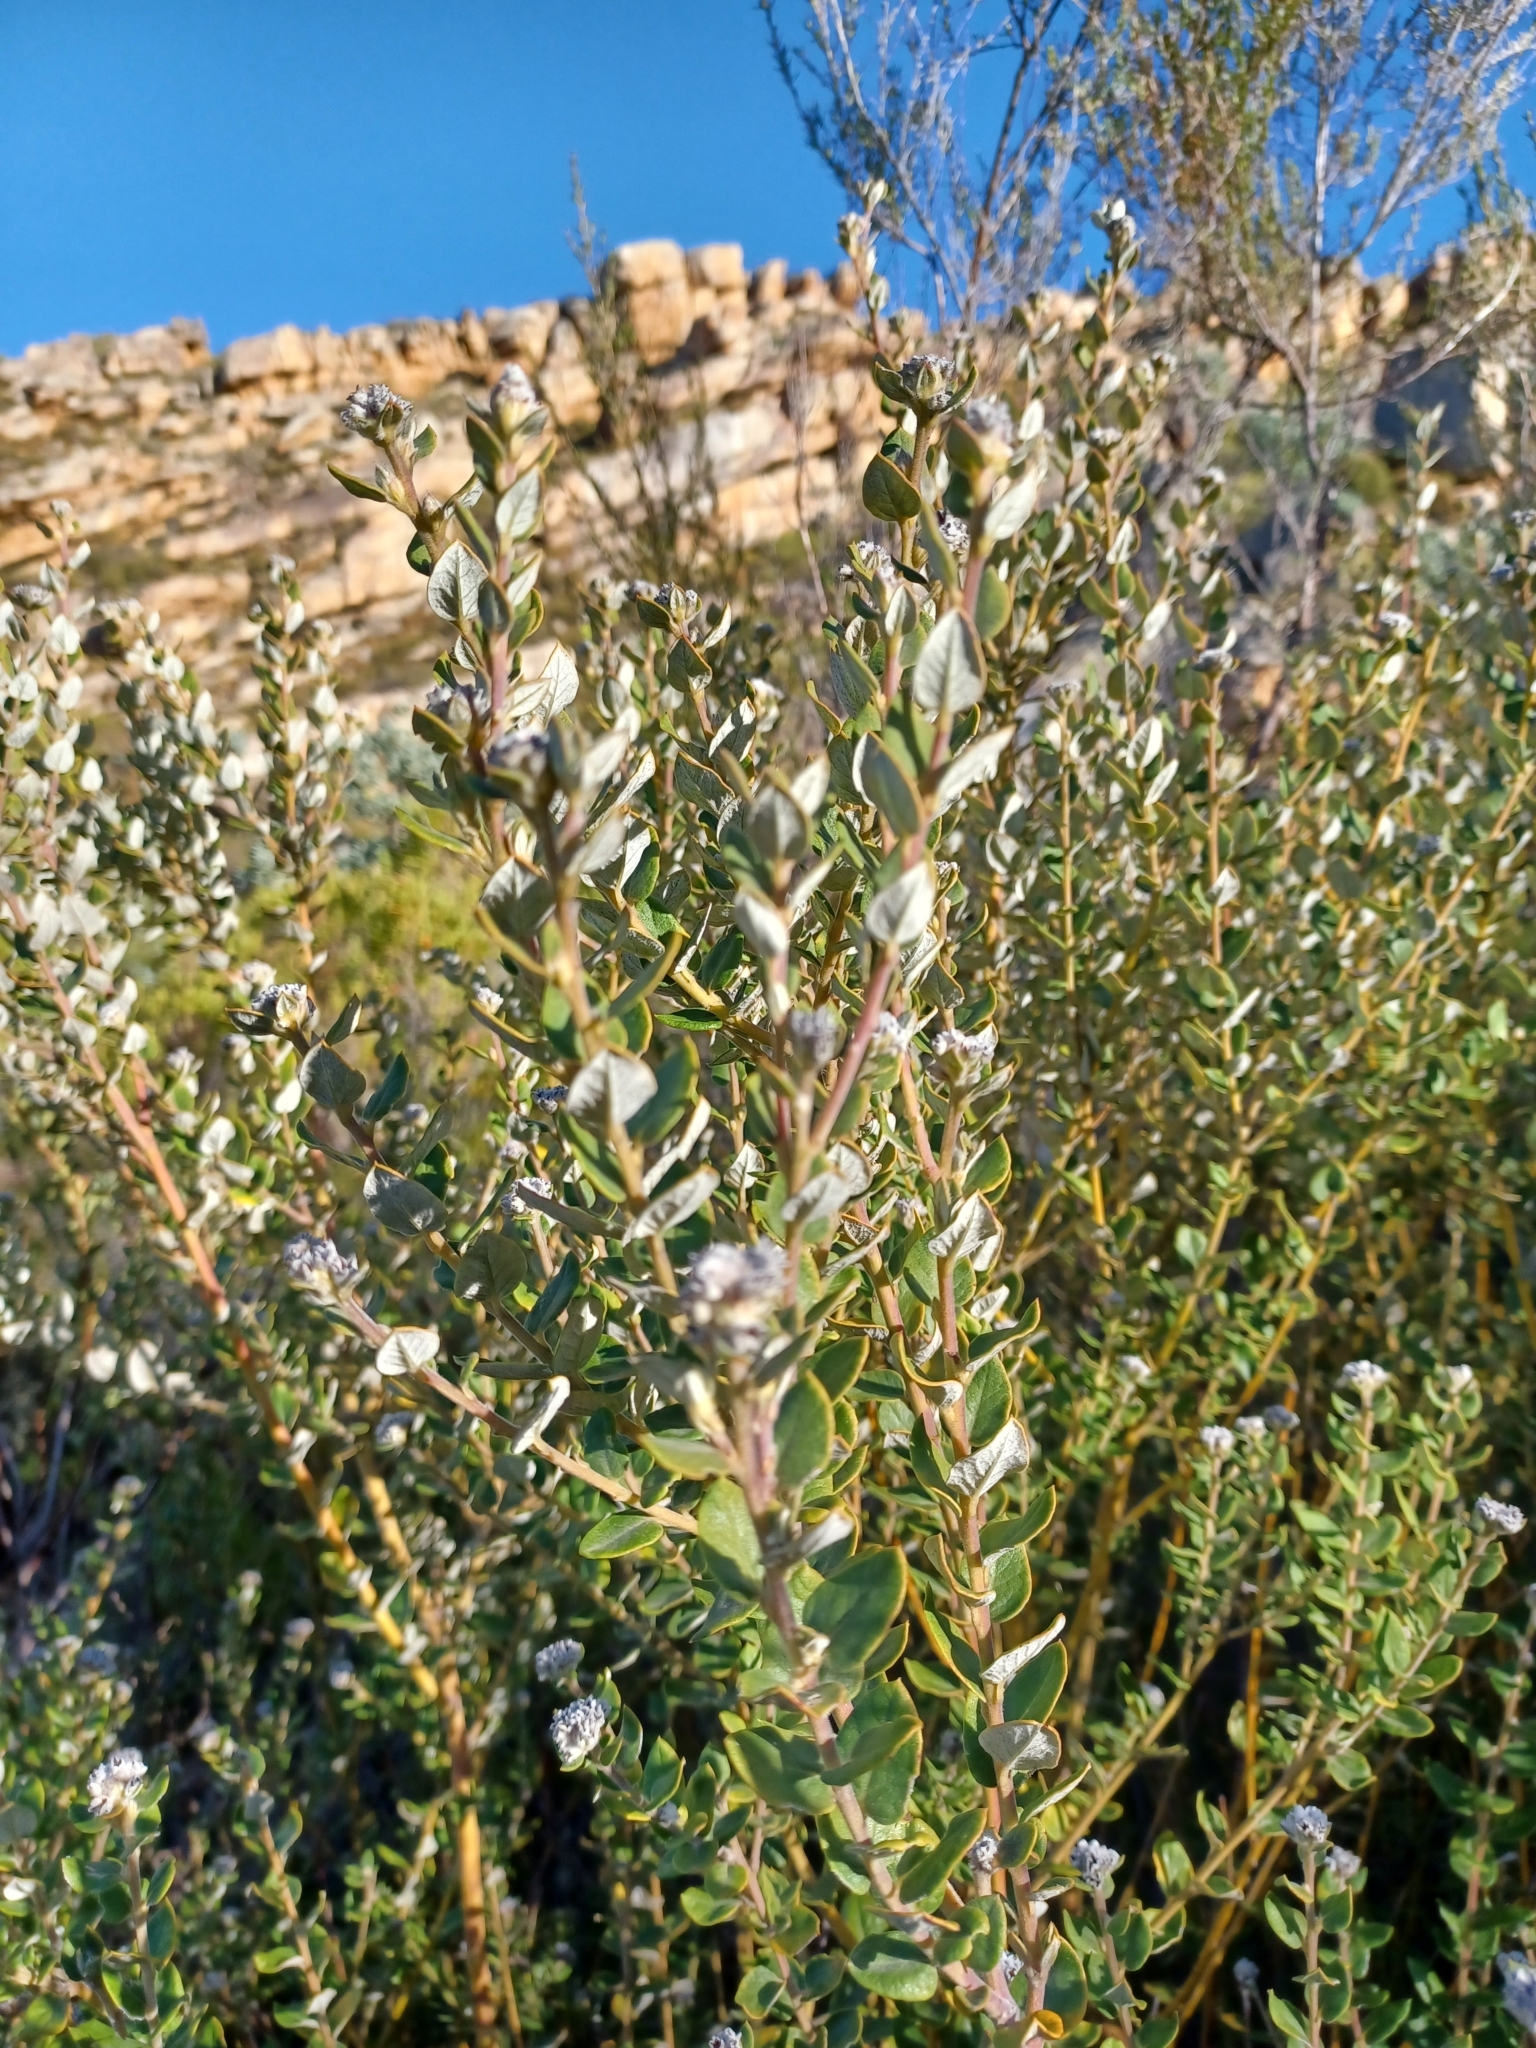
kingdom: Plantae
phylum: Tracheophyta
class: Magnoliopsida
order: Rosales
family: Rhamnaceae
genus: Phylica
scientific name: Phylica nervosa
